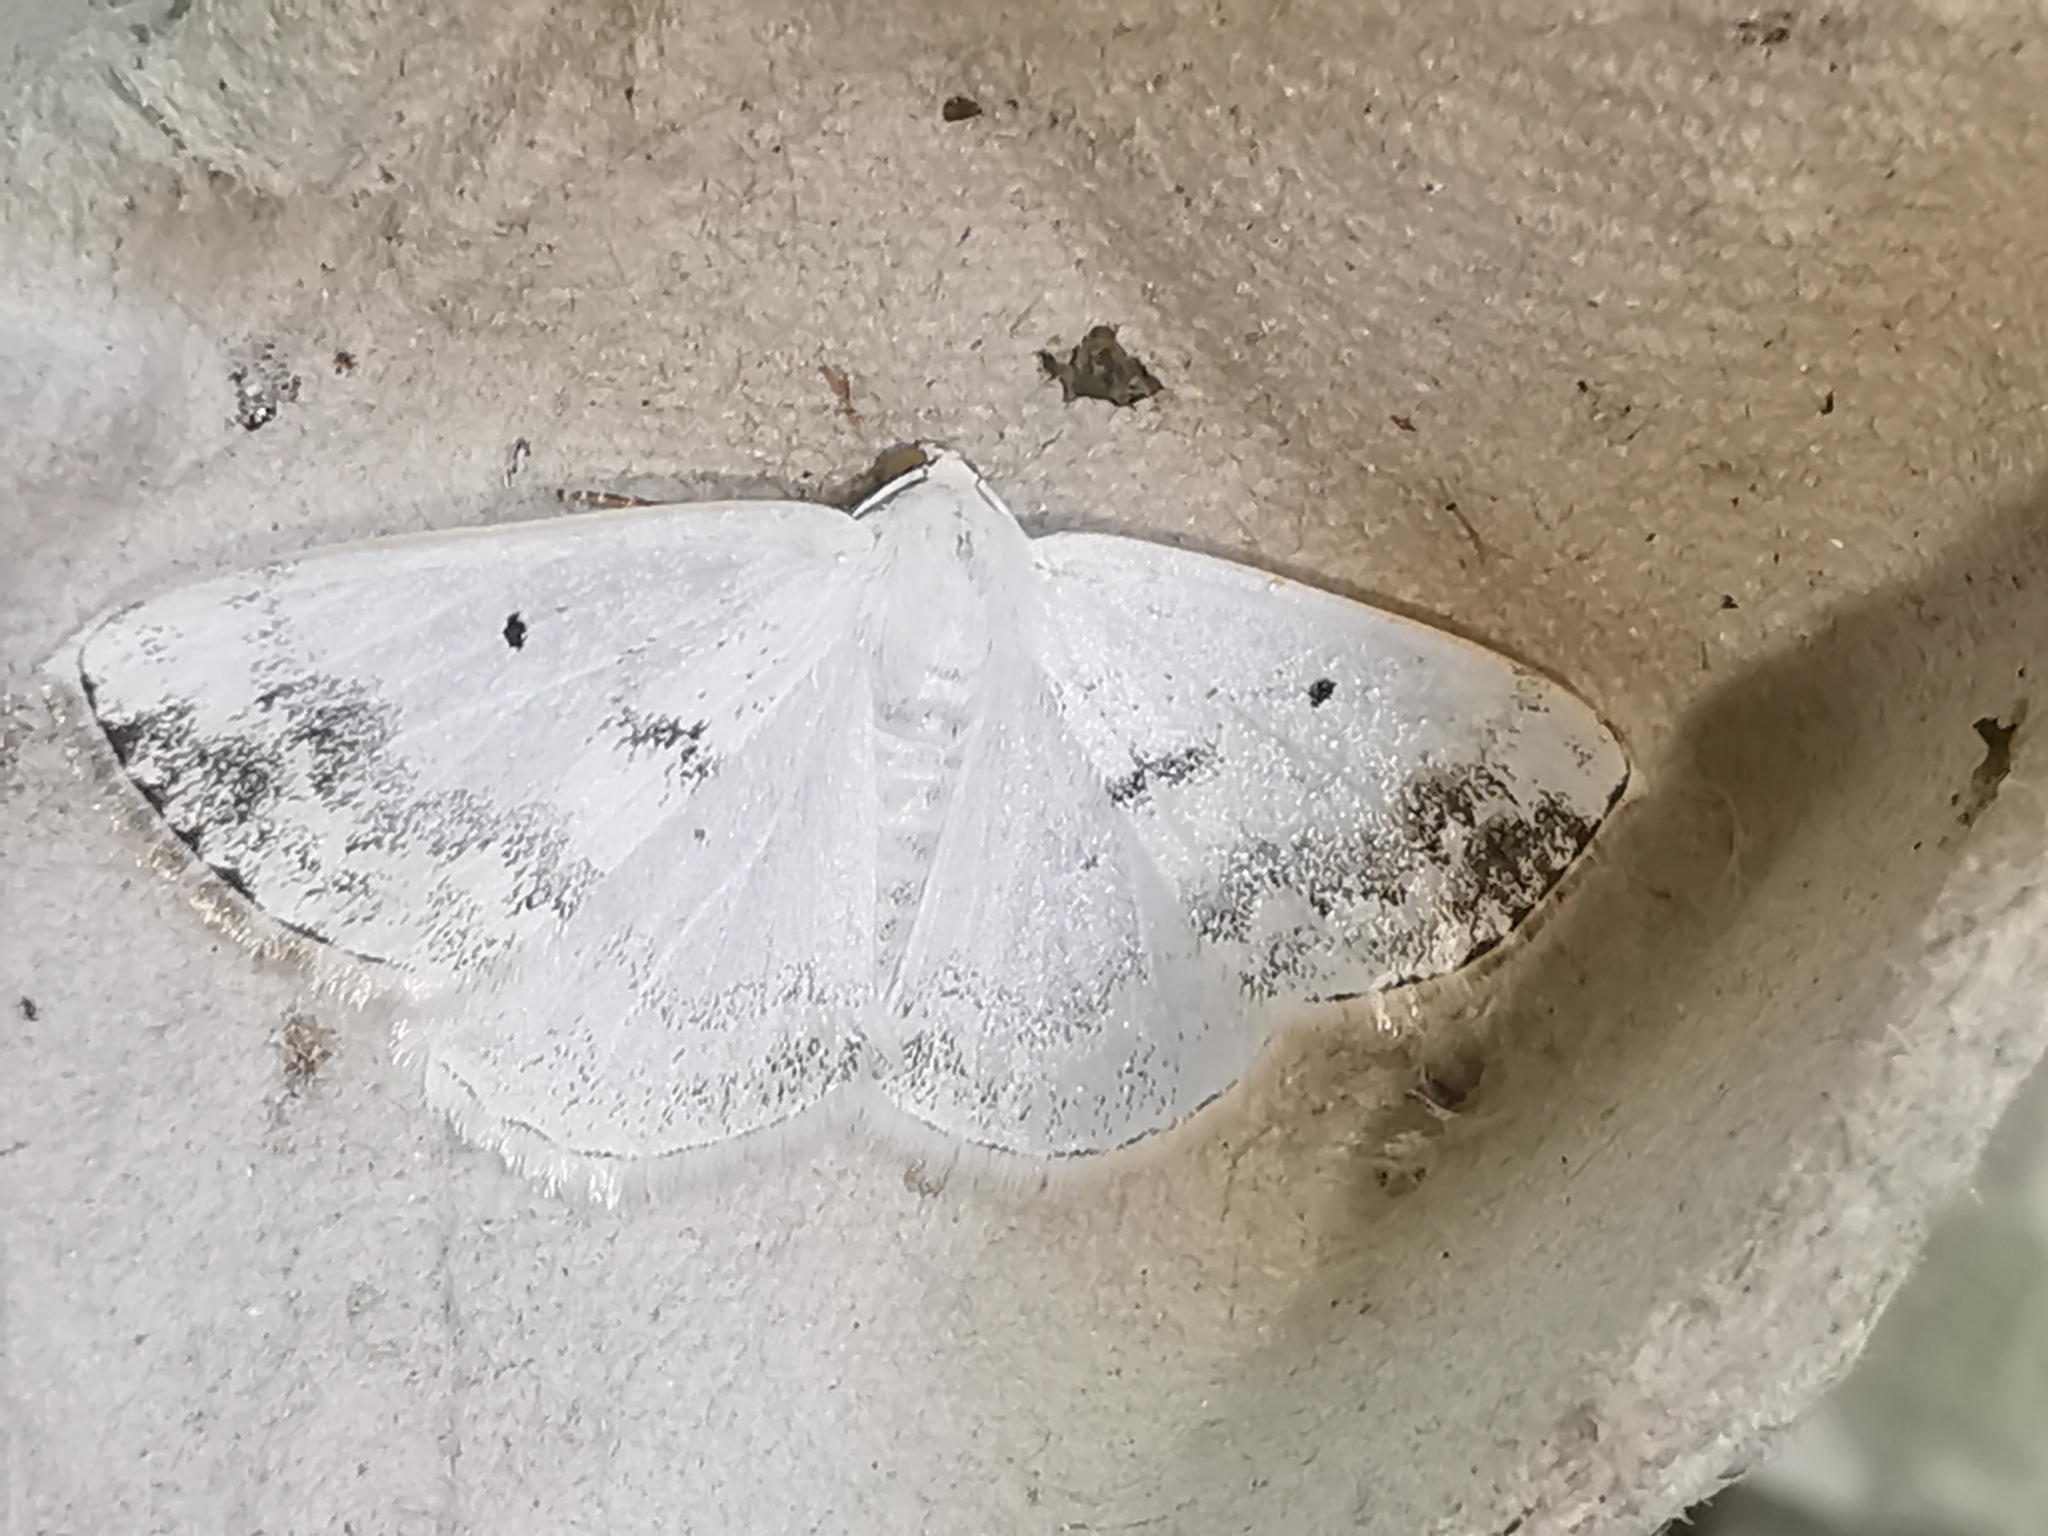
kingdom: Animalia
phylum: Arthropoda
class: Insecta
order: Lepidoptera
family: Geometridae
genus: Lomographa
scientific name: Lomographa temerata
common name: Clouded silver
